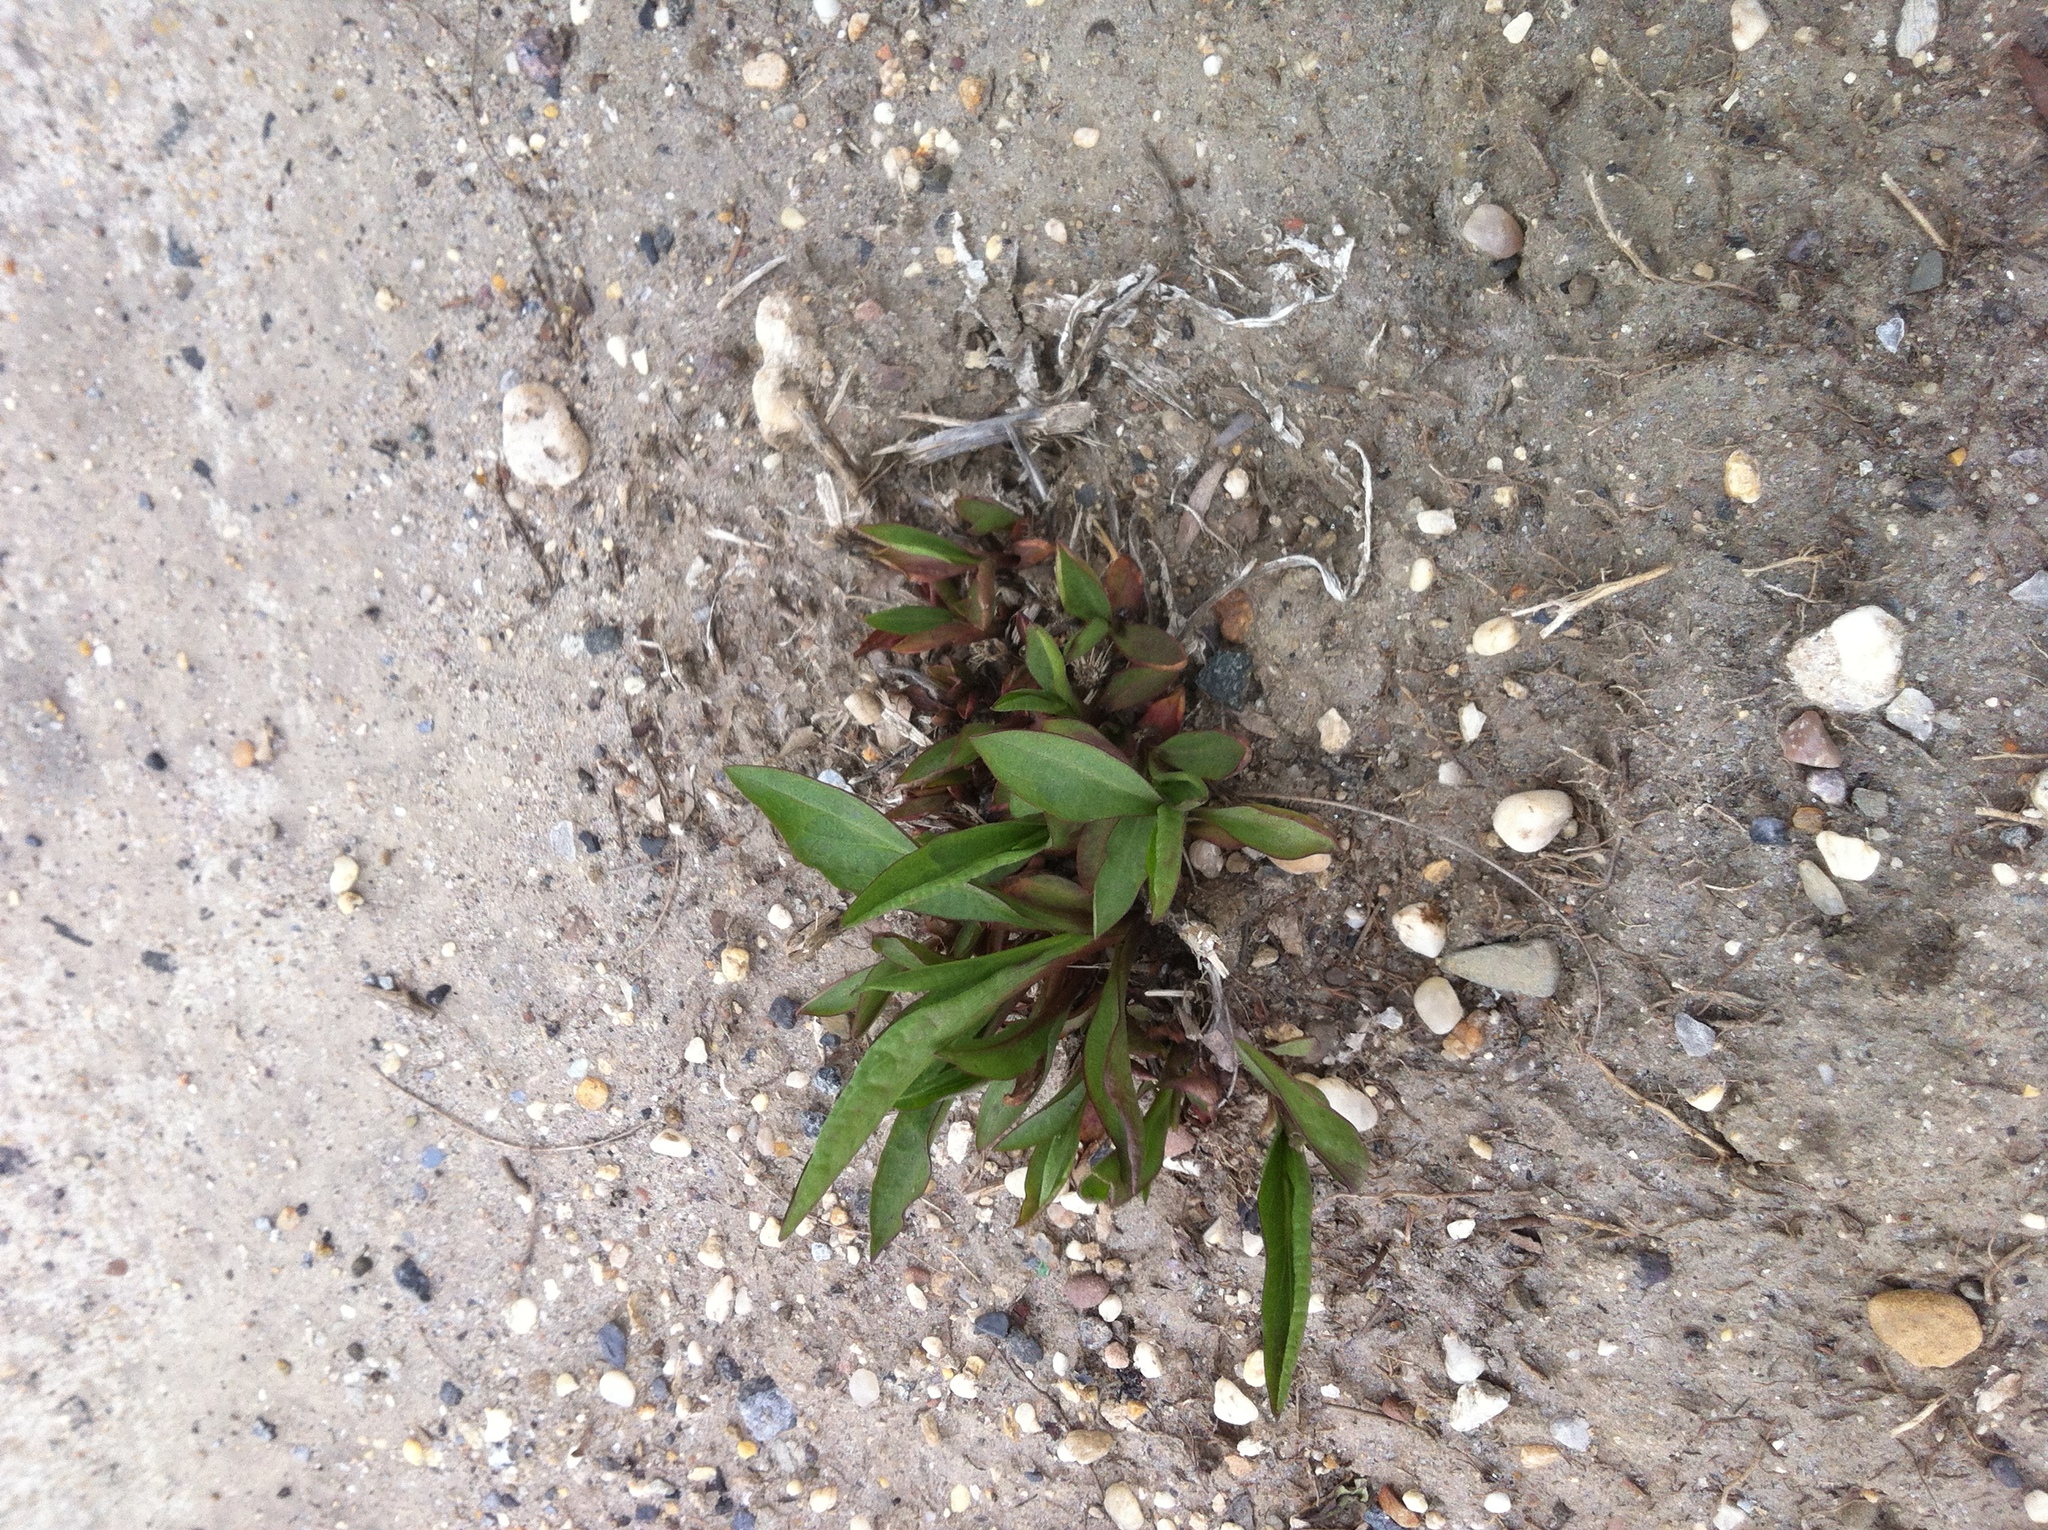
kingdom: Plantae
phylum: Tracheophyta
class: Magnoliopsida
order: Asterales
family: Asteraceae
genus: Solidago
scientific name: Solidago sempervirens
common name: Salt-marsh goldenrod
